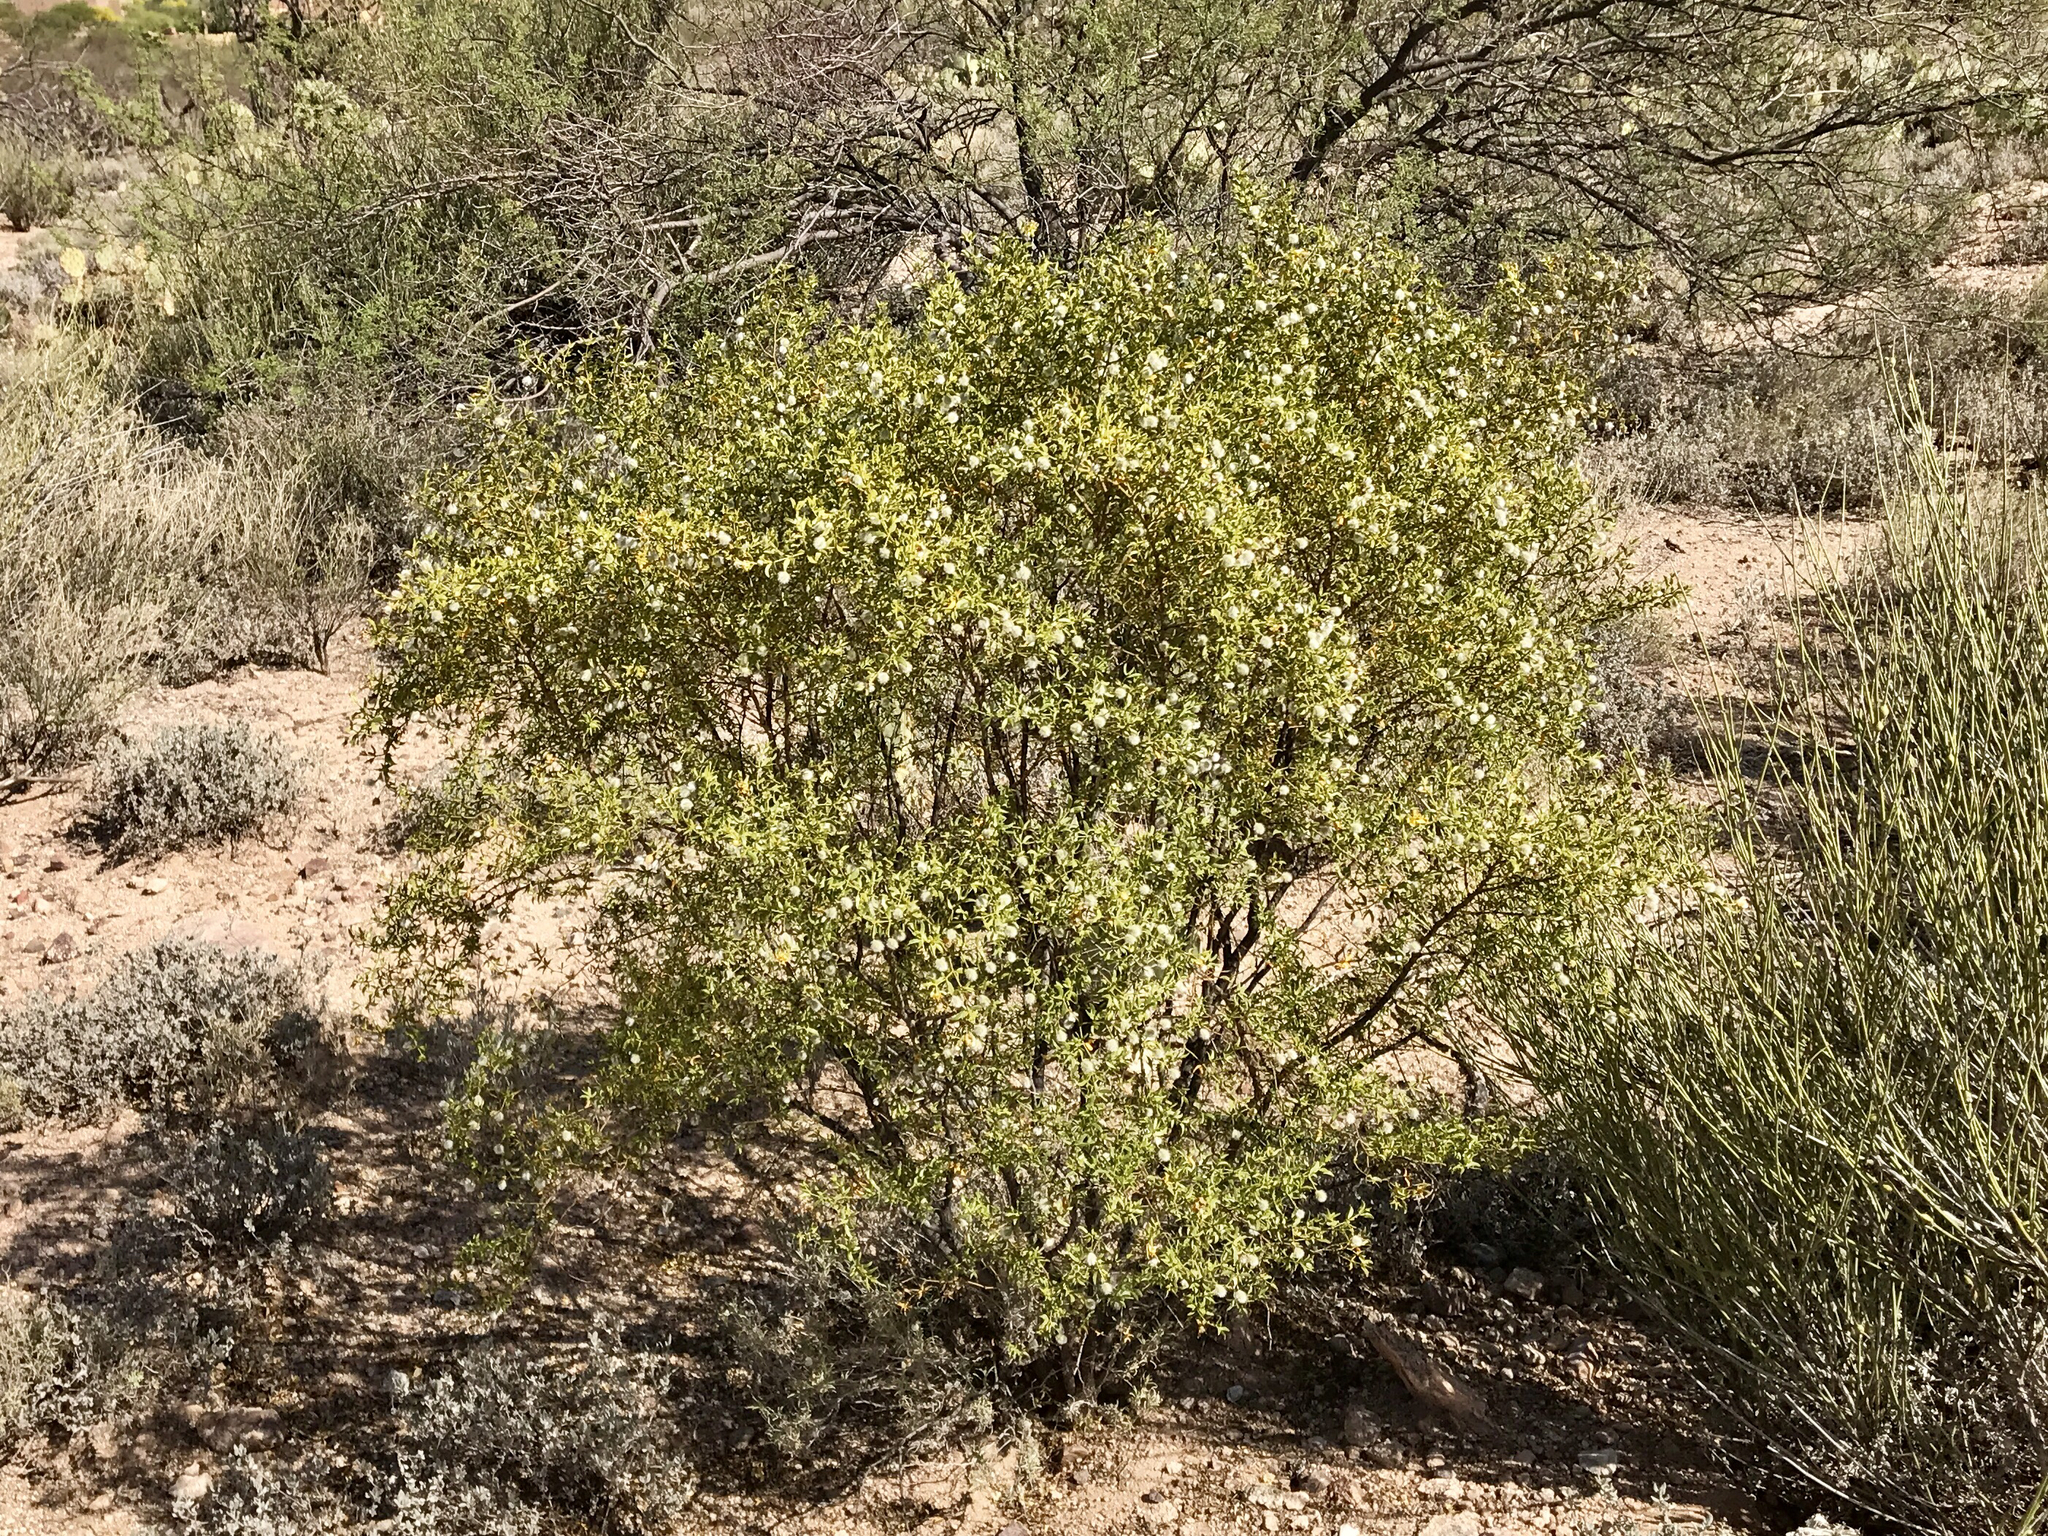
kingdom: Plantae
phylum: Tracheophyta
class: Magnoliopsida
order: Zygophyllales
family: Zygophyllaceae
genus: Larrea
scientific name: Larrea tridentata
